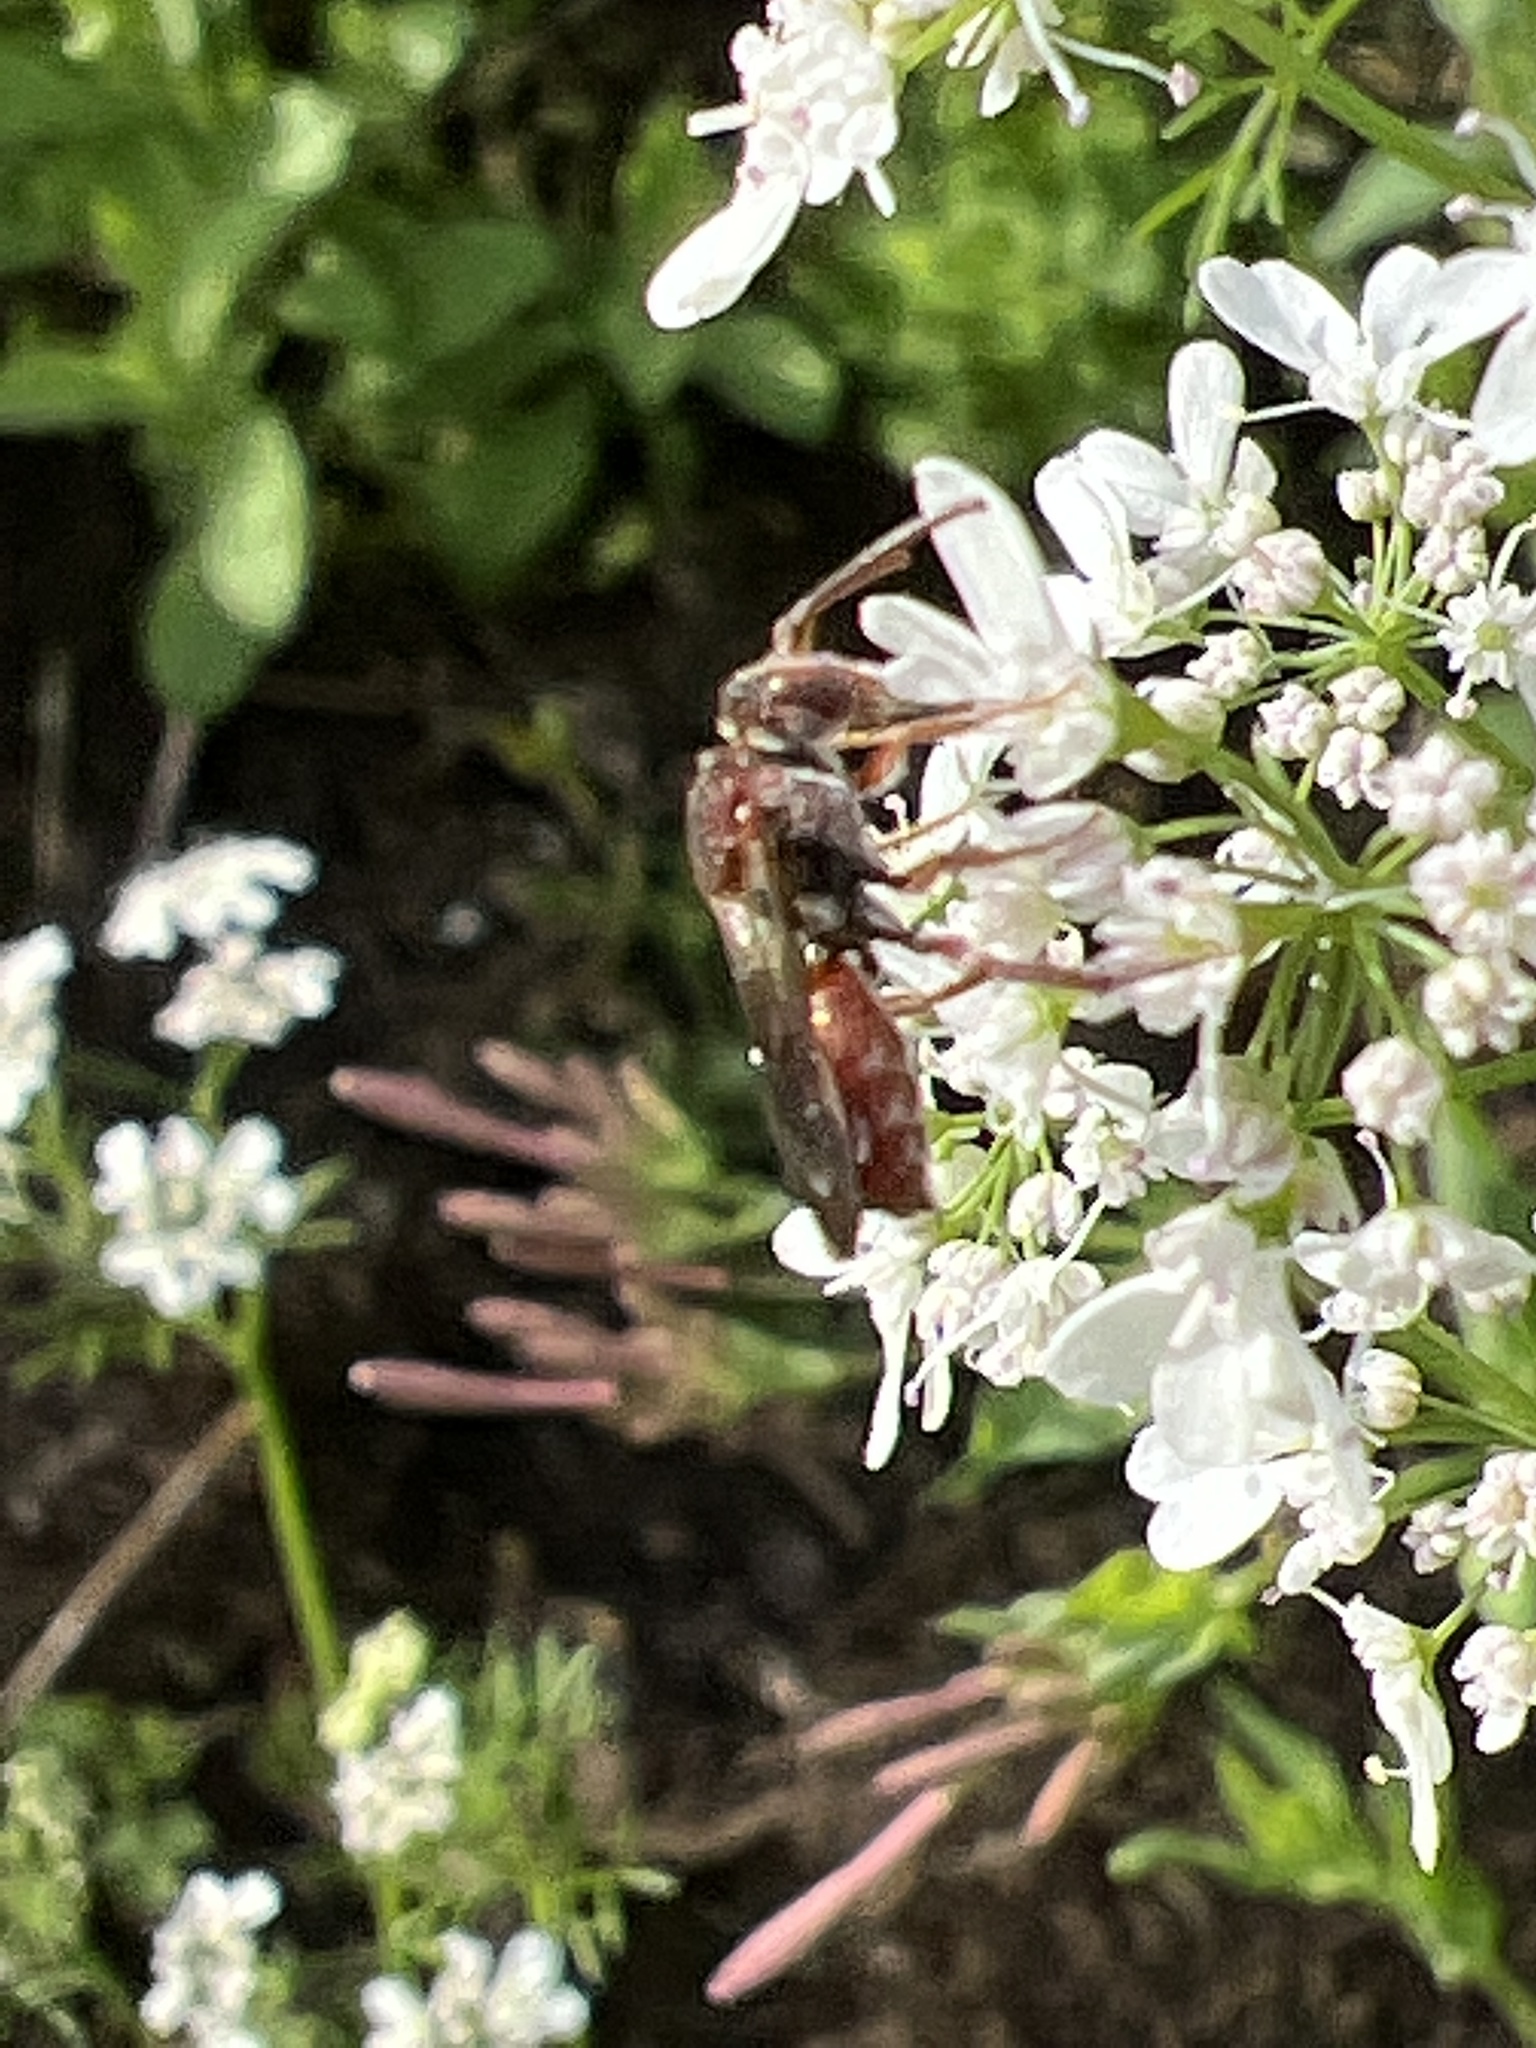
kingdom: Animalia
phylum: Arthropoda
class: Insecta
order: Hymenoptera
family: Apidae
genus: Nomada
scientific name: Nomada
